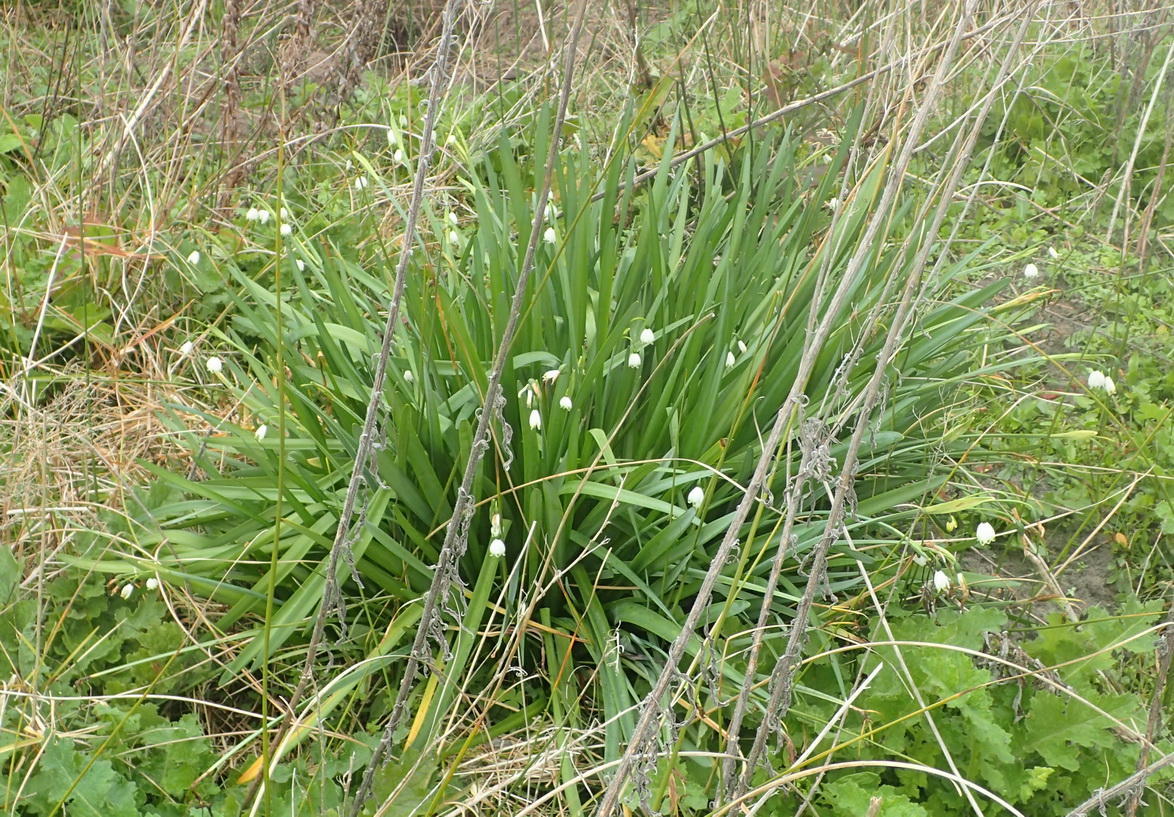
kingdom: Plantae
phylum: Tracheophyta
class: Liliopsida
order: Asparagales
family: Amaryllidaceae
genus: Leucojum
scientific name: Leucojum aestivum
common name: Summer snowflake
